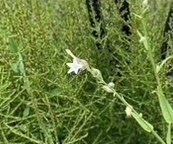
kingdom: Plantae
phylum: Tracheophyta
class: Magnoliopsida
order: Solanales
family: Solanaceae
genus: Nicotiana
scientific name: Nicotiana quadrivalvis
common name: Indian tobacco
